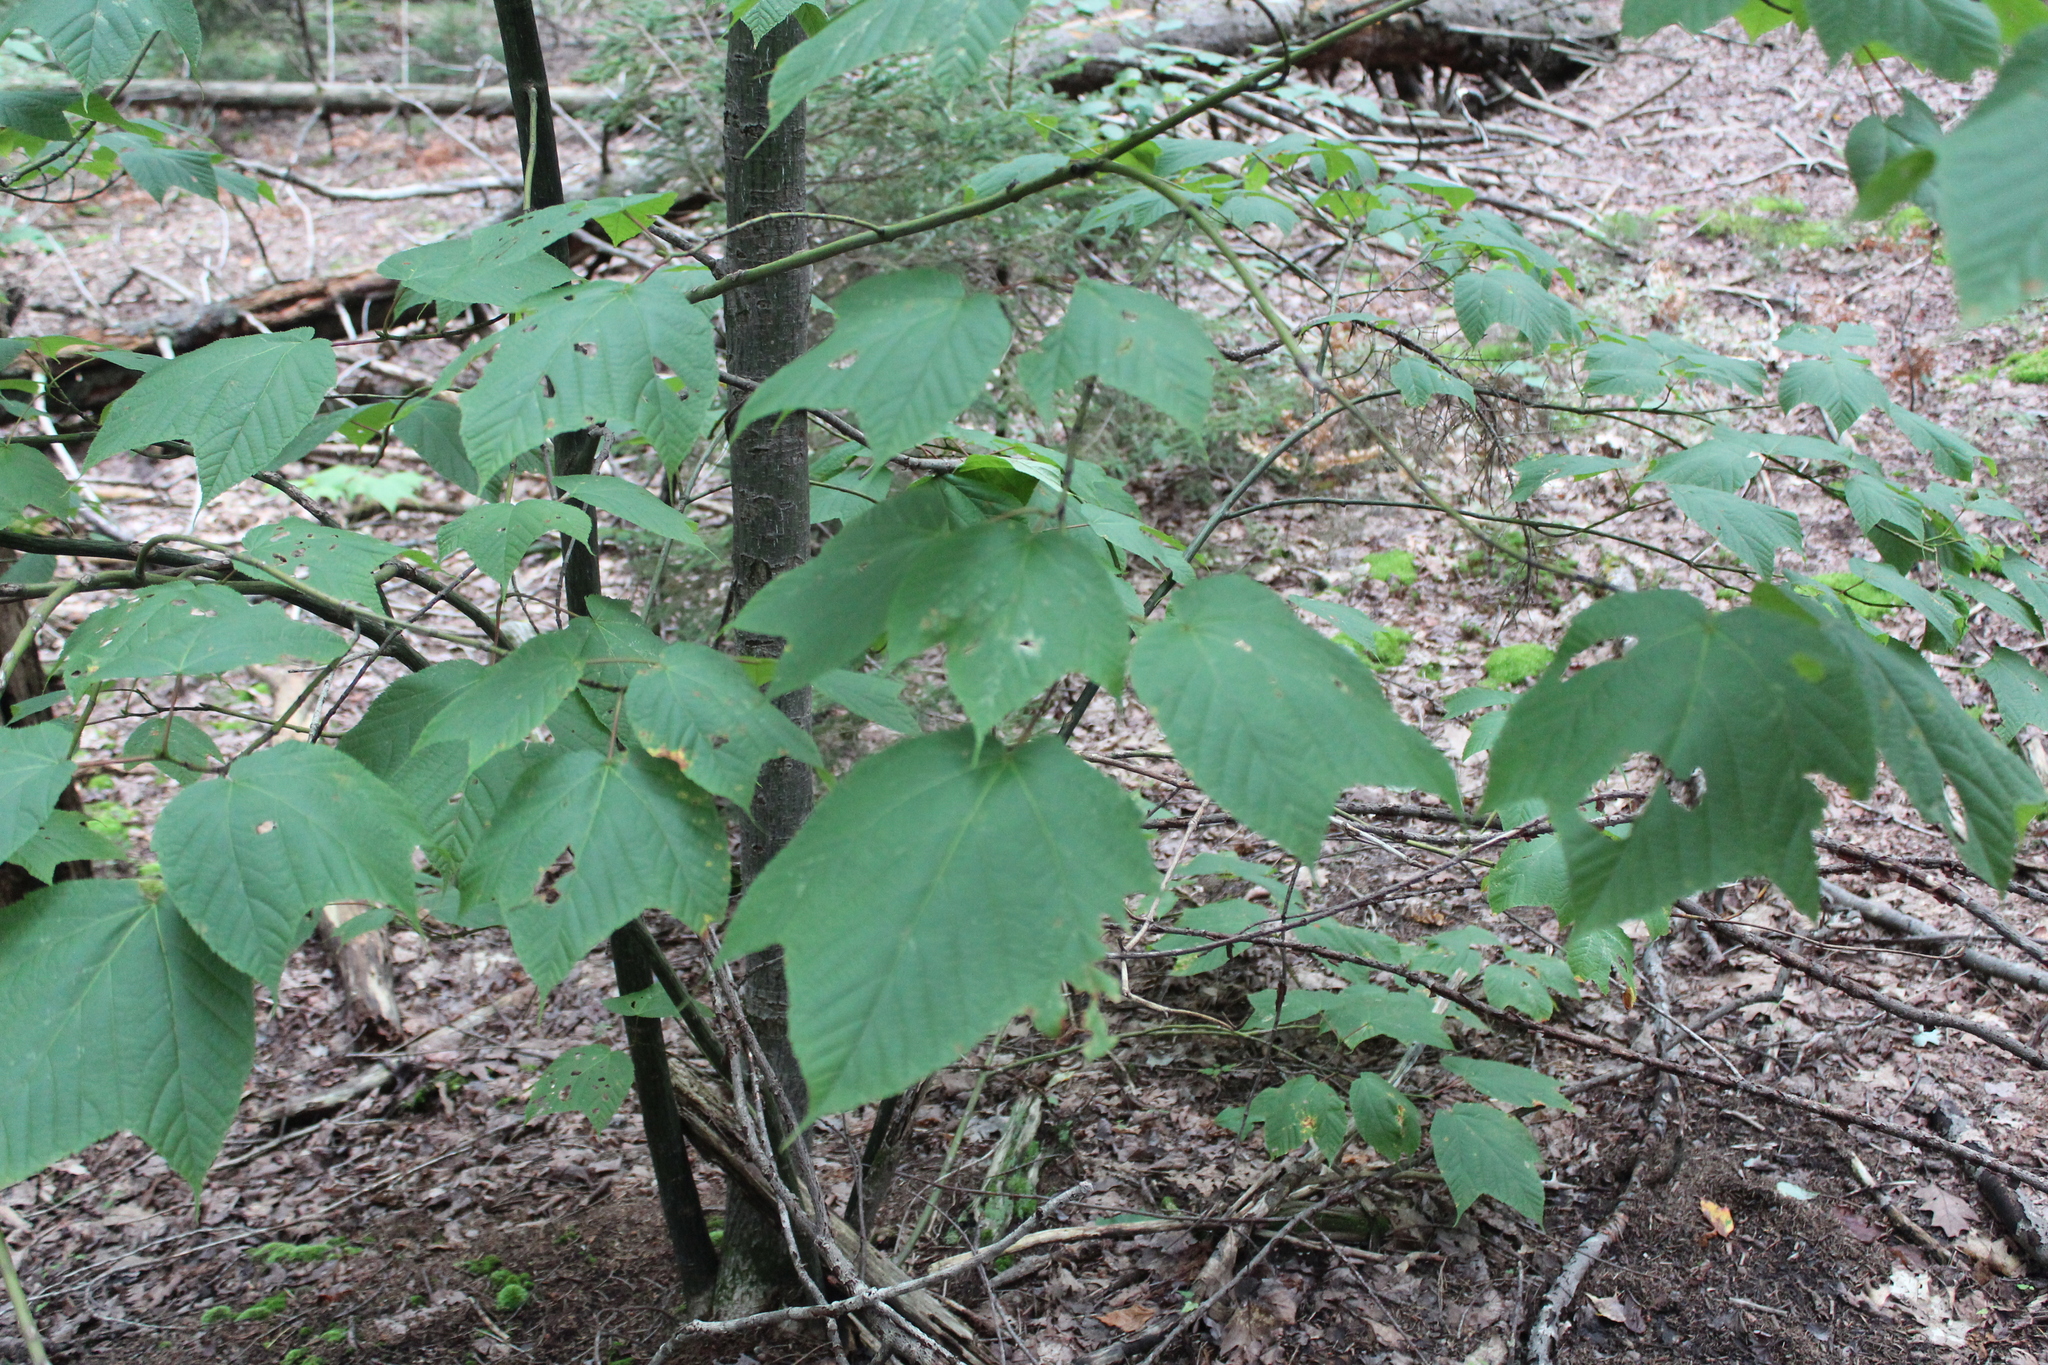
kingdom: Plantae
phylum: Tracheophyta
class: Magnoliopsida
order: Sapindales
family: Sapindaceae
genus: Acer
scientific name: Acer pensylvanicum
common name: Moosewood
